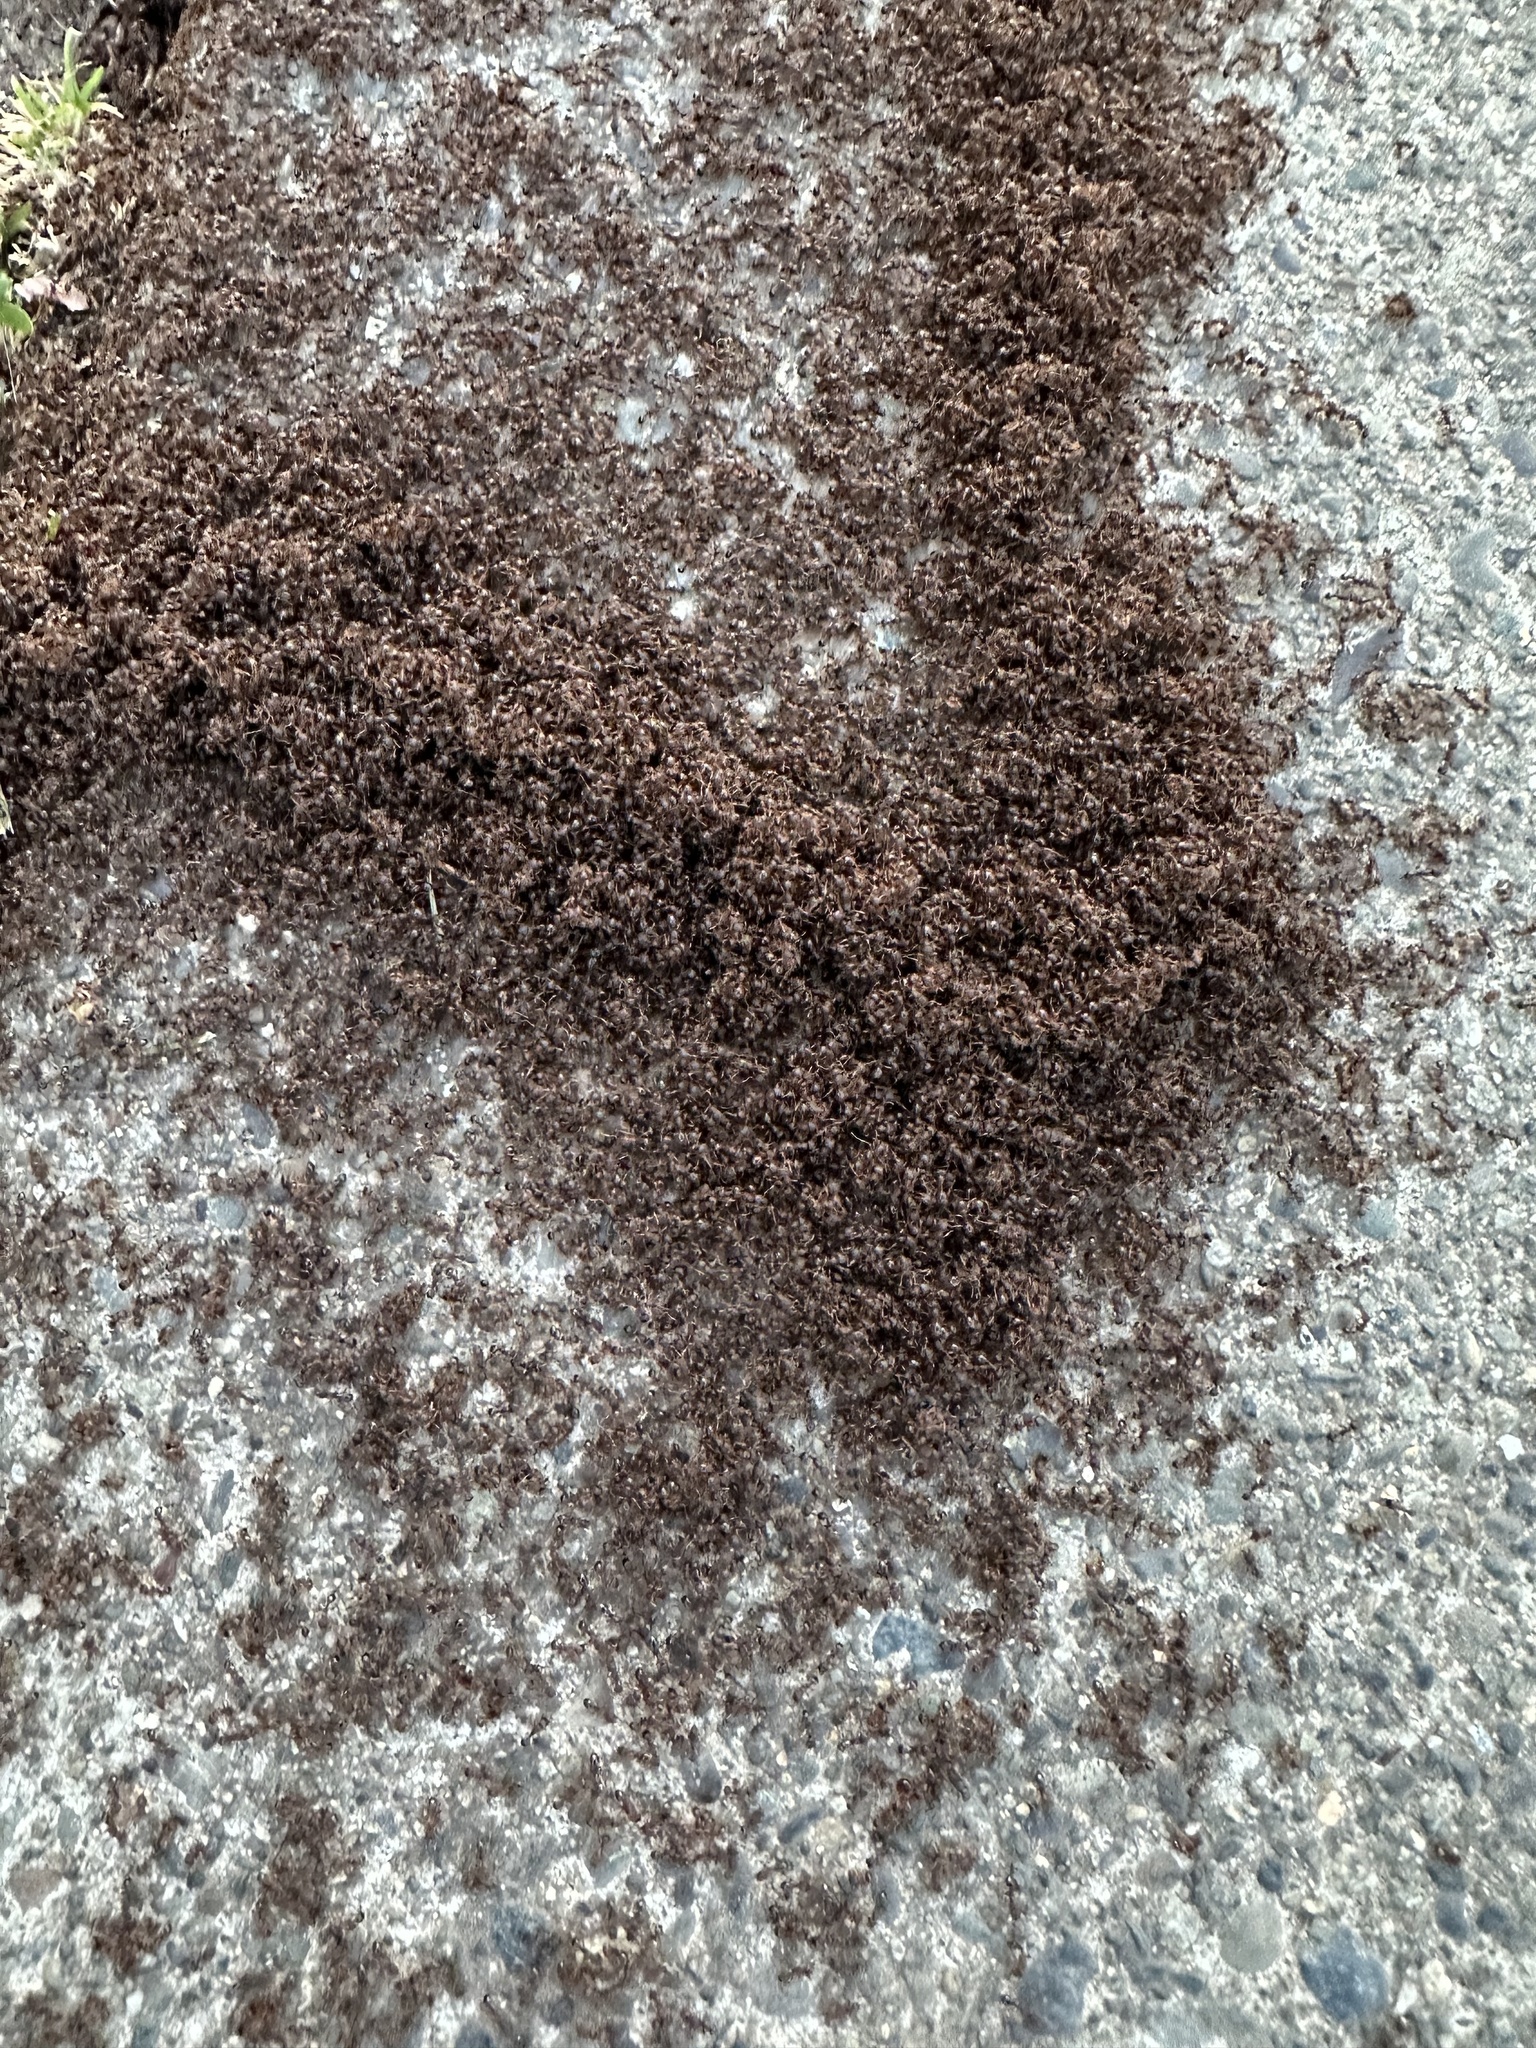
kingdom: Animalia
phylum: Arthropoda
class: Insecta
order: Hymenoptera
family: Formicidae
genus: Tetramorium
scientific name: Tetramorium immigrans
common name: Pavement ant
